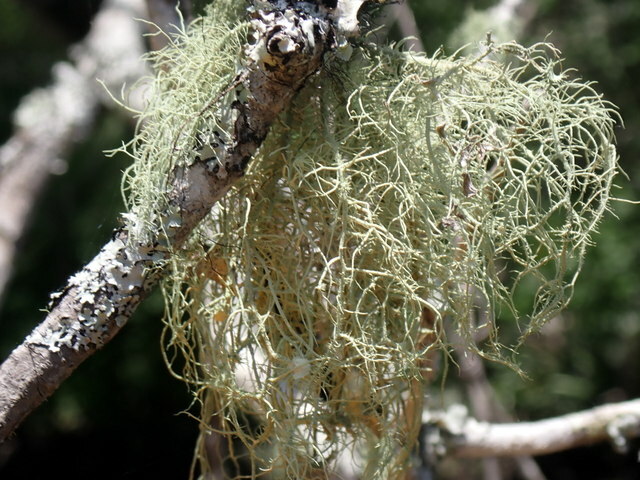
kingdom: Fungi
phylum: Ascomycota
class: Lecanoromycetes
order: Lecanorales
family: Parmeliaceae
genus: Usnea
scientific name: Usnea strigosa
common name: Bushy beard lichen
